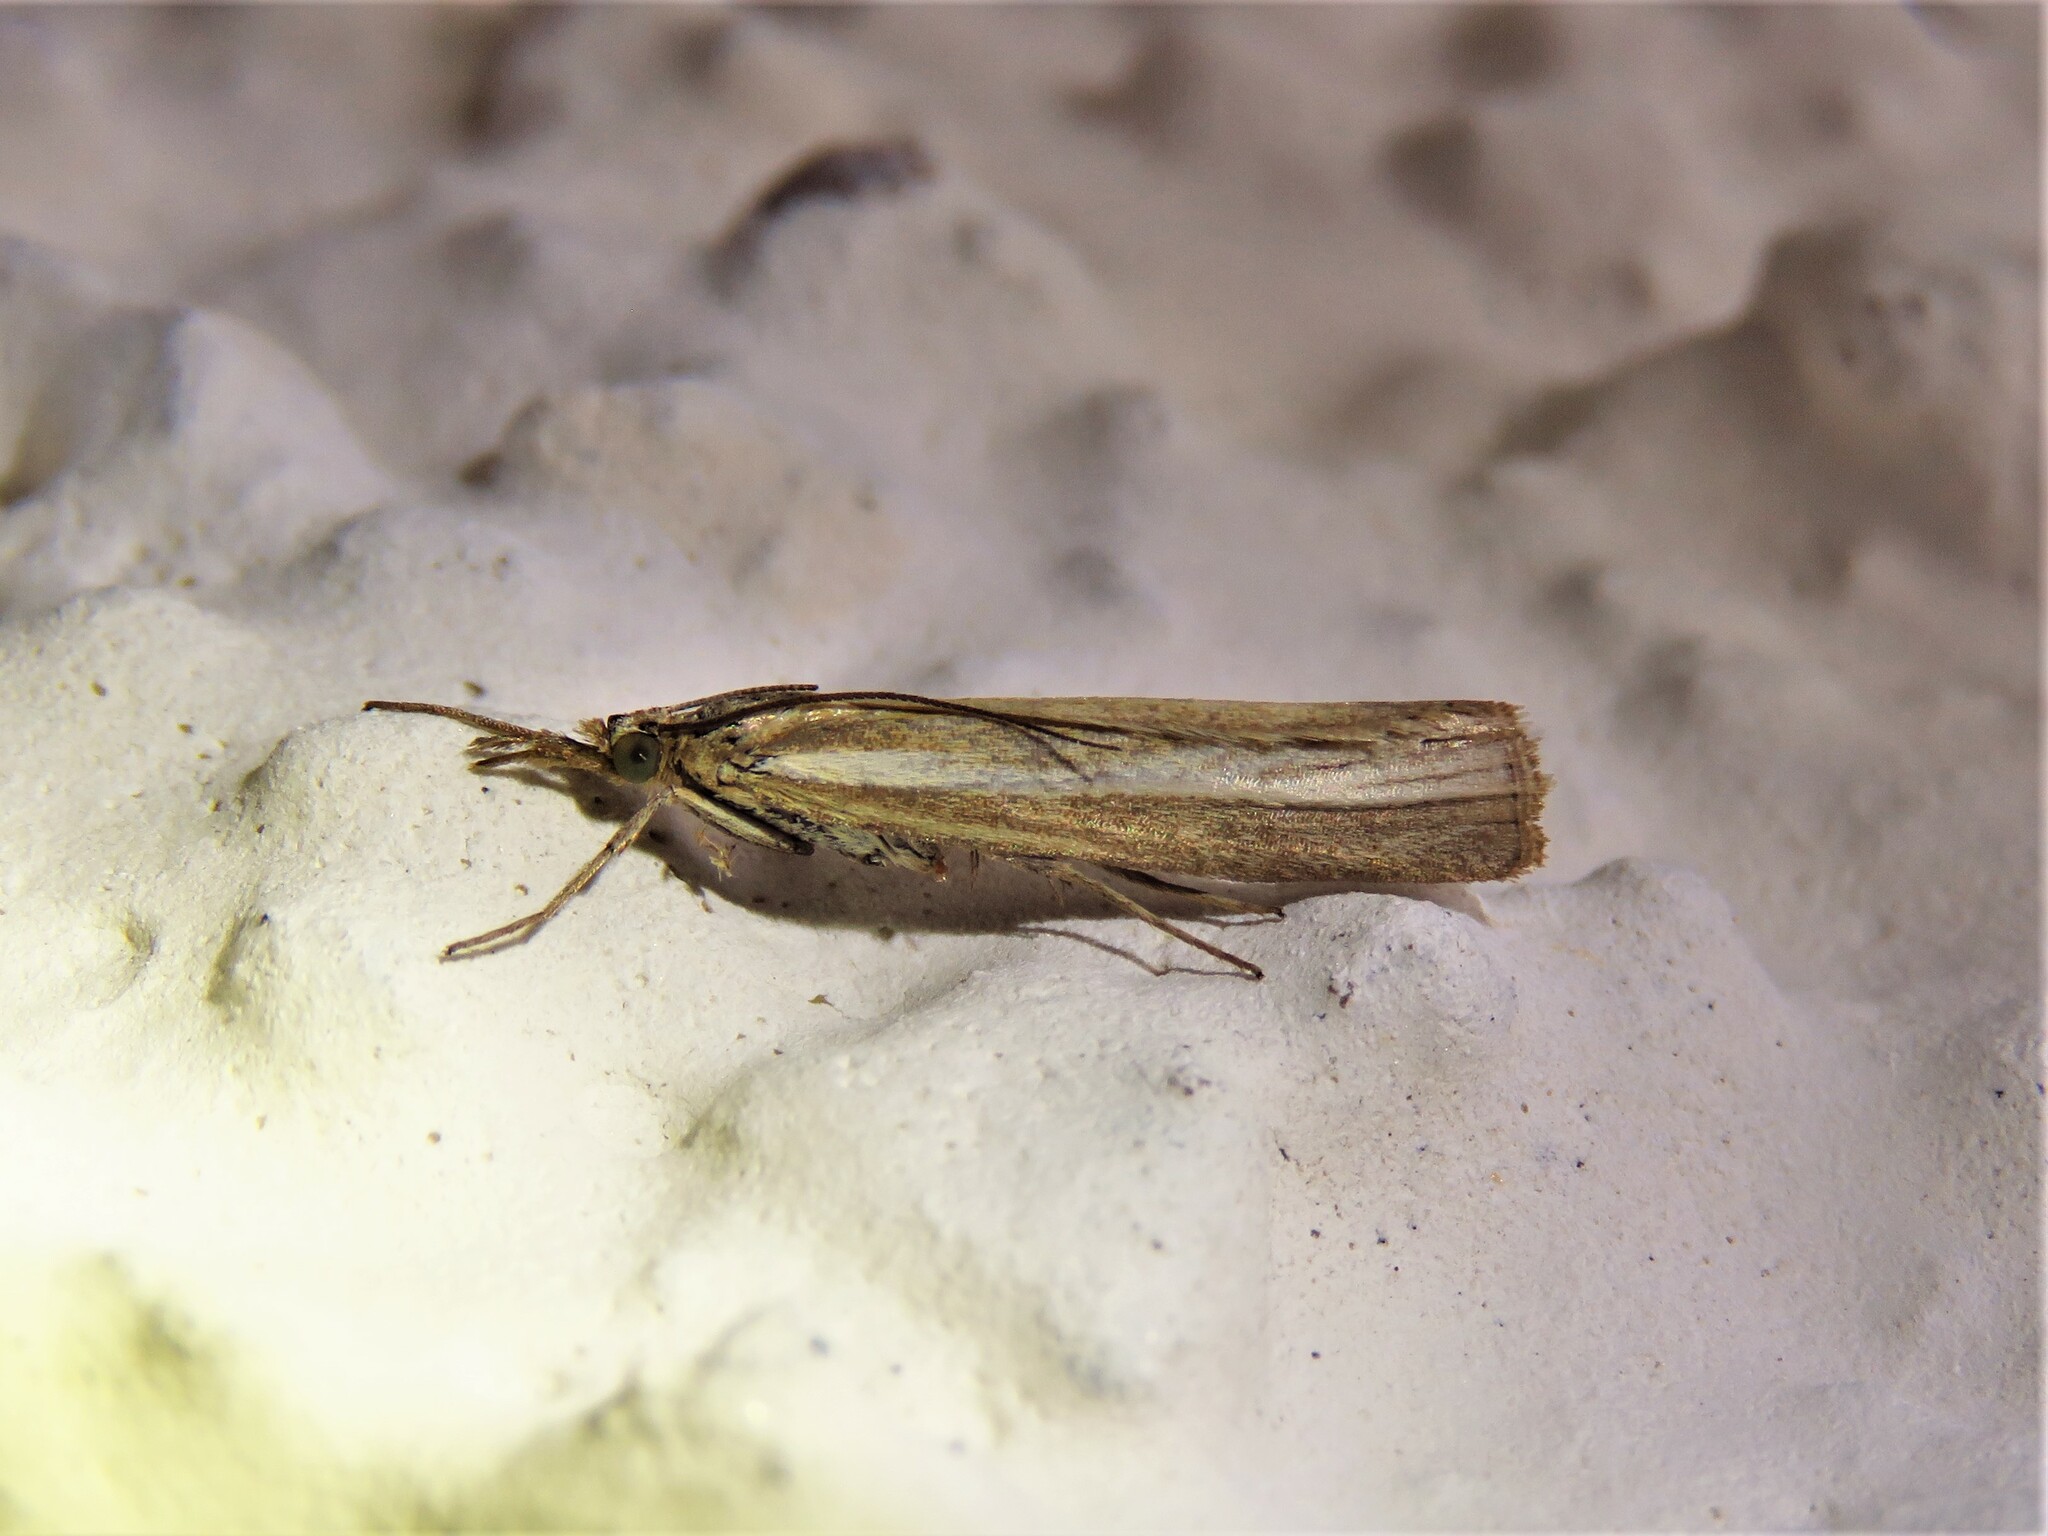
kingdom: Animalia
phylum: Arthropoda
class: Insecta
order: Lepidoptera
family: Crambidae
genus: Agriphila
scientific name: Agriphila tristellus
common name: Common grass-veneer
